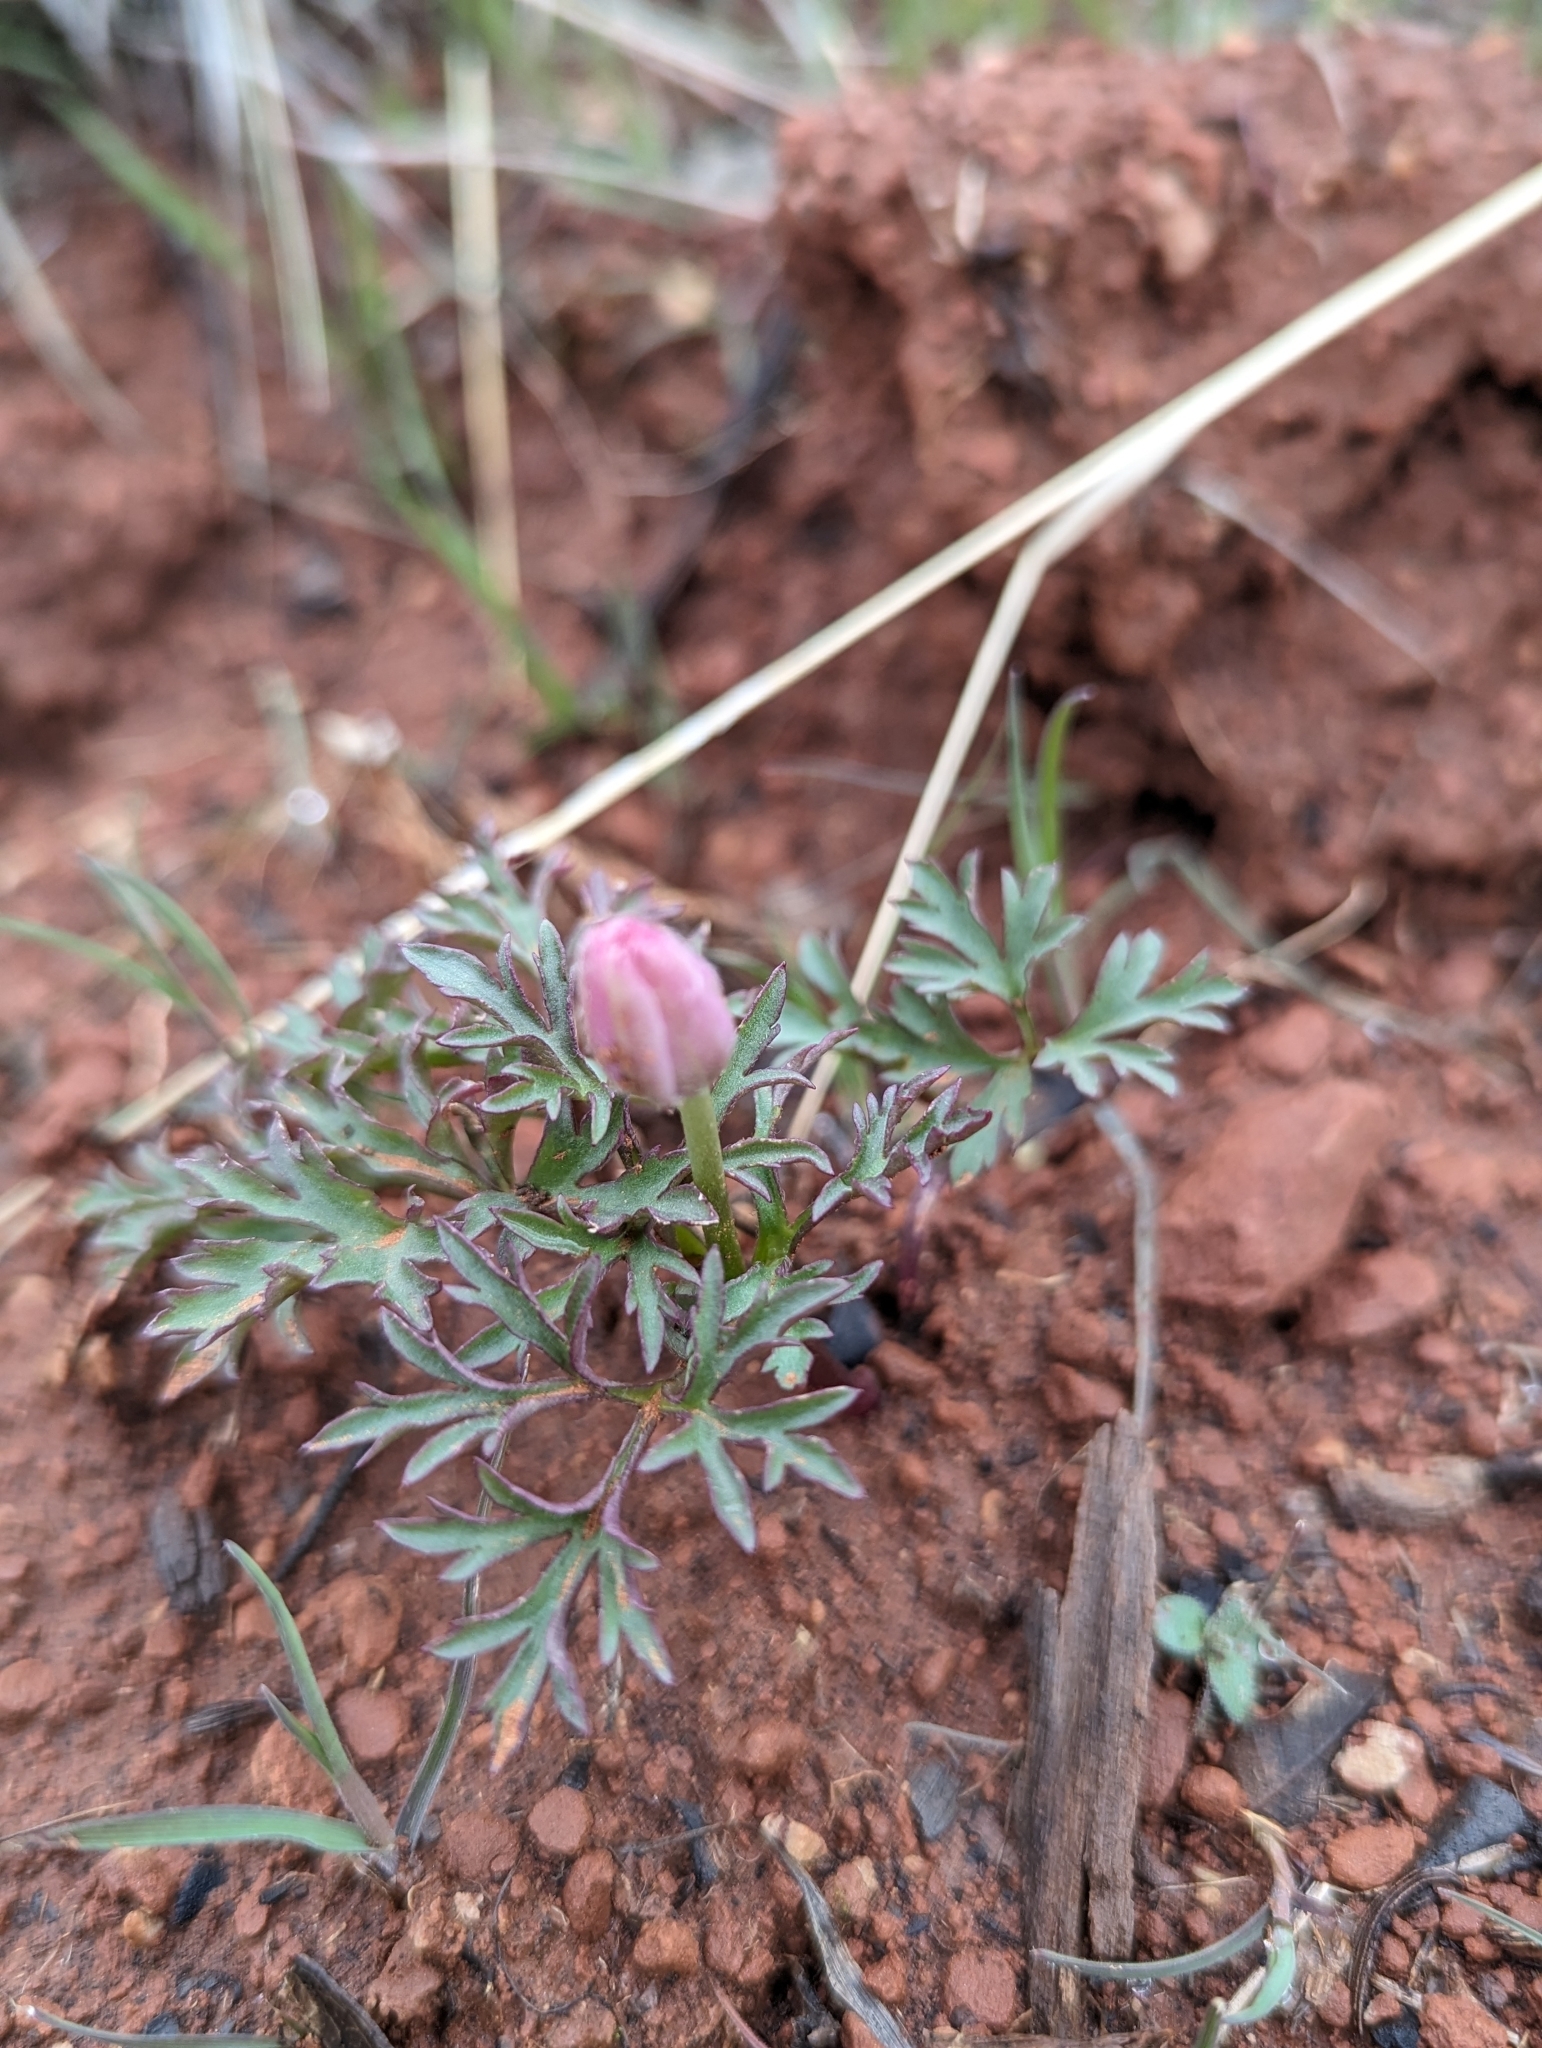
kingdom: Plantae
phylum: Tracheophyta
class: Magnoliopsida
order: Ranunculales
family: Ranunculaceae
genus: Anemone
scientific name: Anemone tuberosa
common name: Desert anemone
